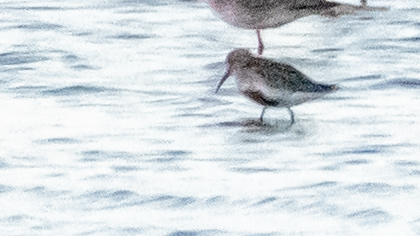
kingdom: Animalia
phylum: Chordata
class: Aves
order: Charadriiformes
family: Scolopacidae
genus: Calidris
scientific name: Calidris alpina
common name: Dunlin
